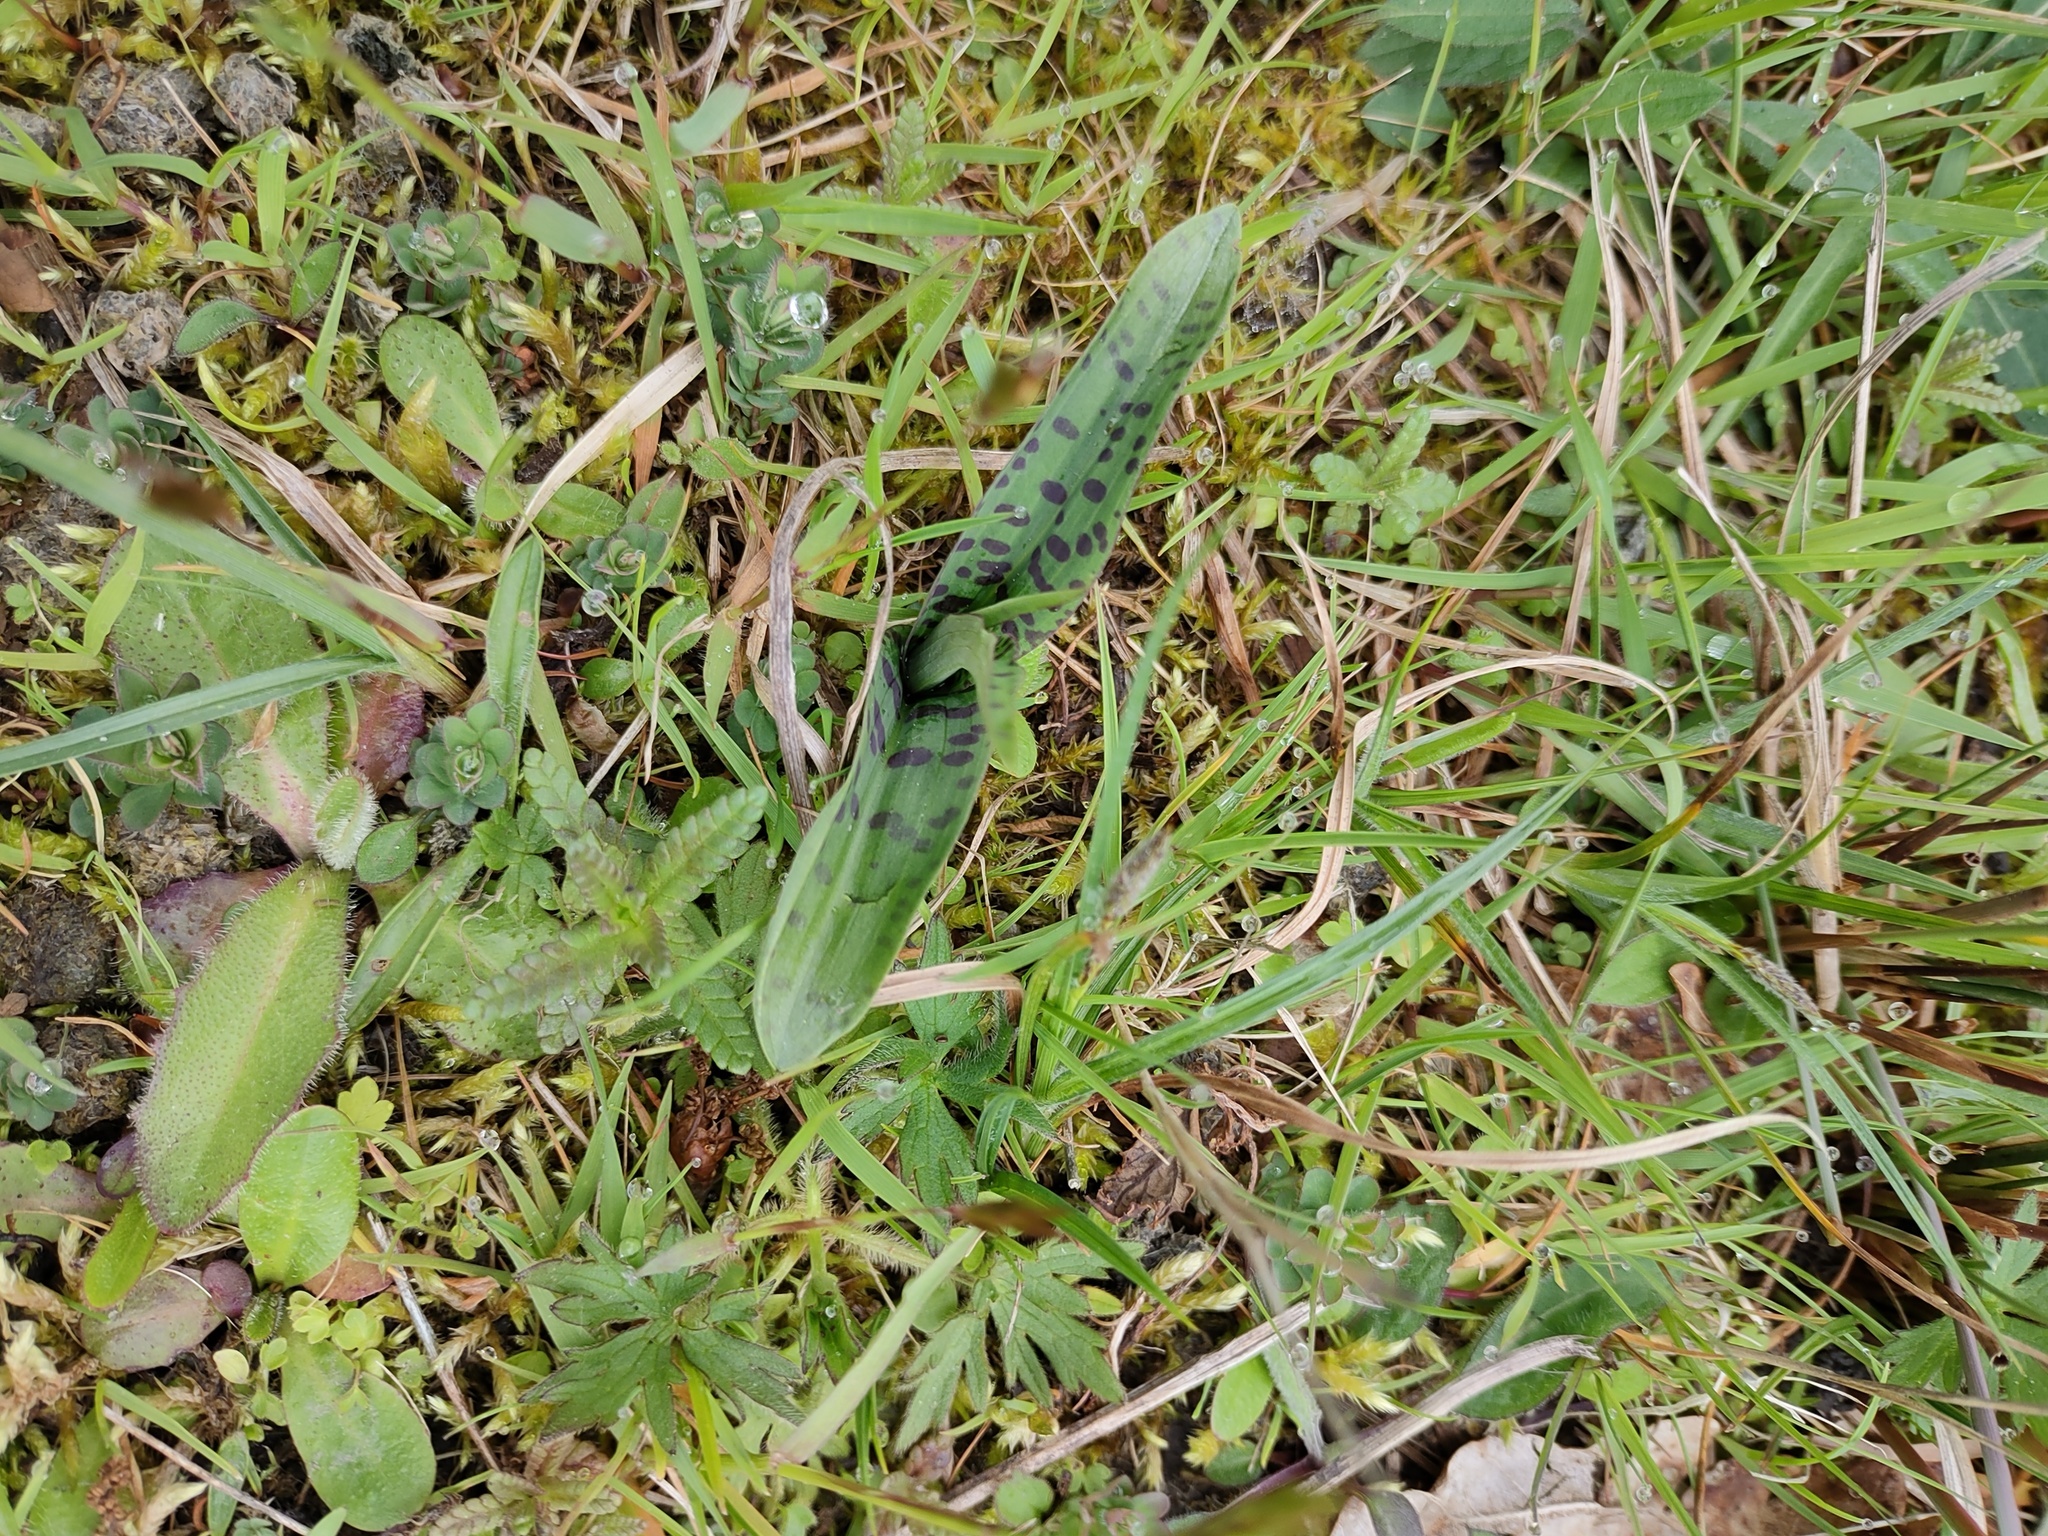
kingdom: Plantae
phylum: Tracheophyta
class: Liliopsida
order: Asparagales
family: Orchidaceae
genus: Dactylorhiza
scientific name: Dactylorhiza maculata
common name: Heath spotted-orchid
